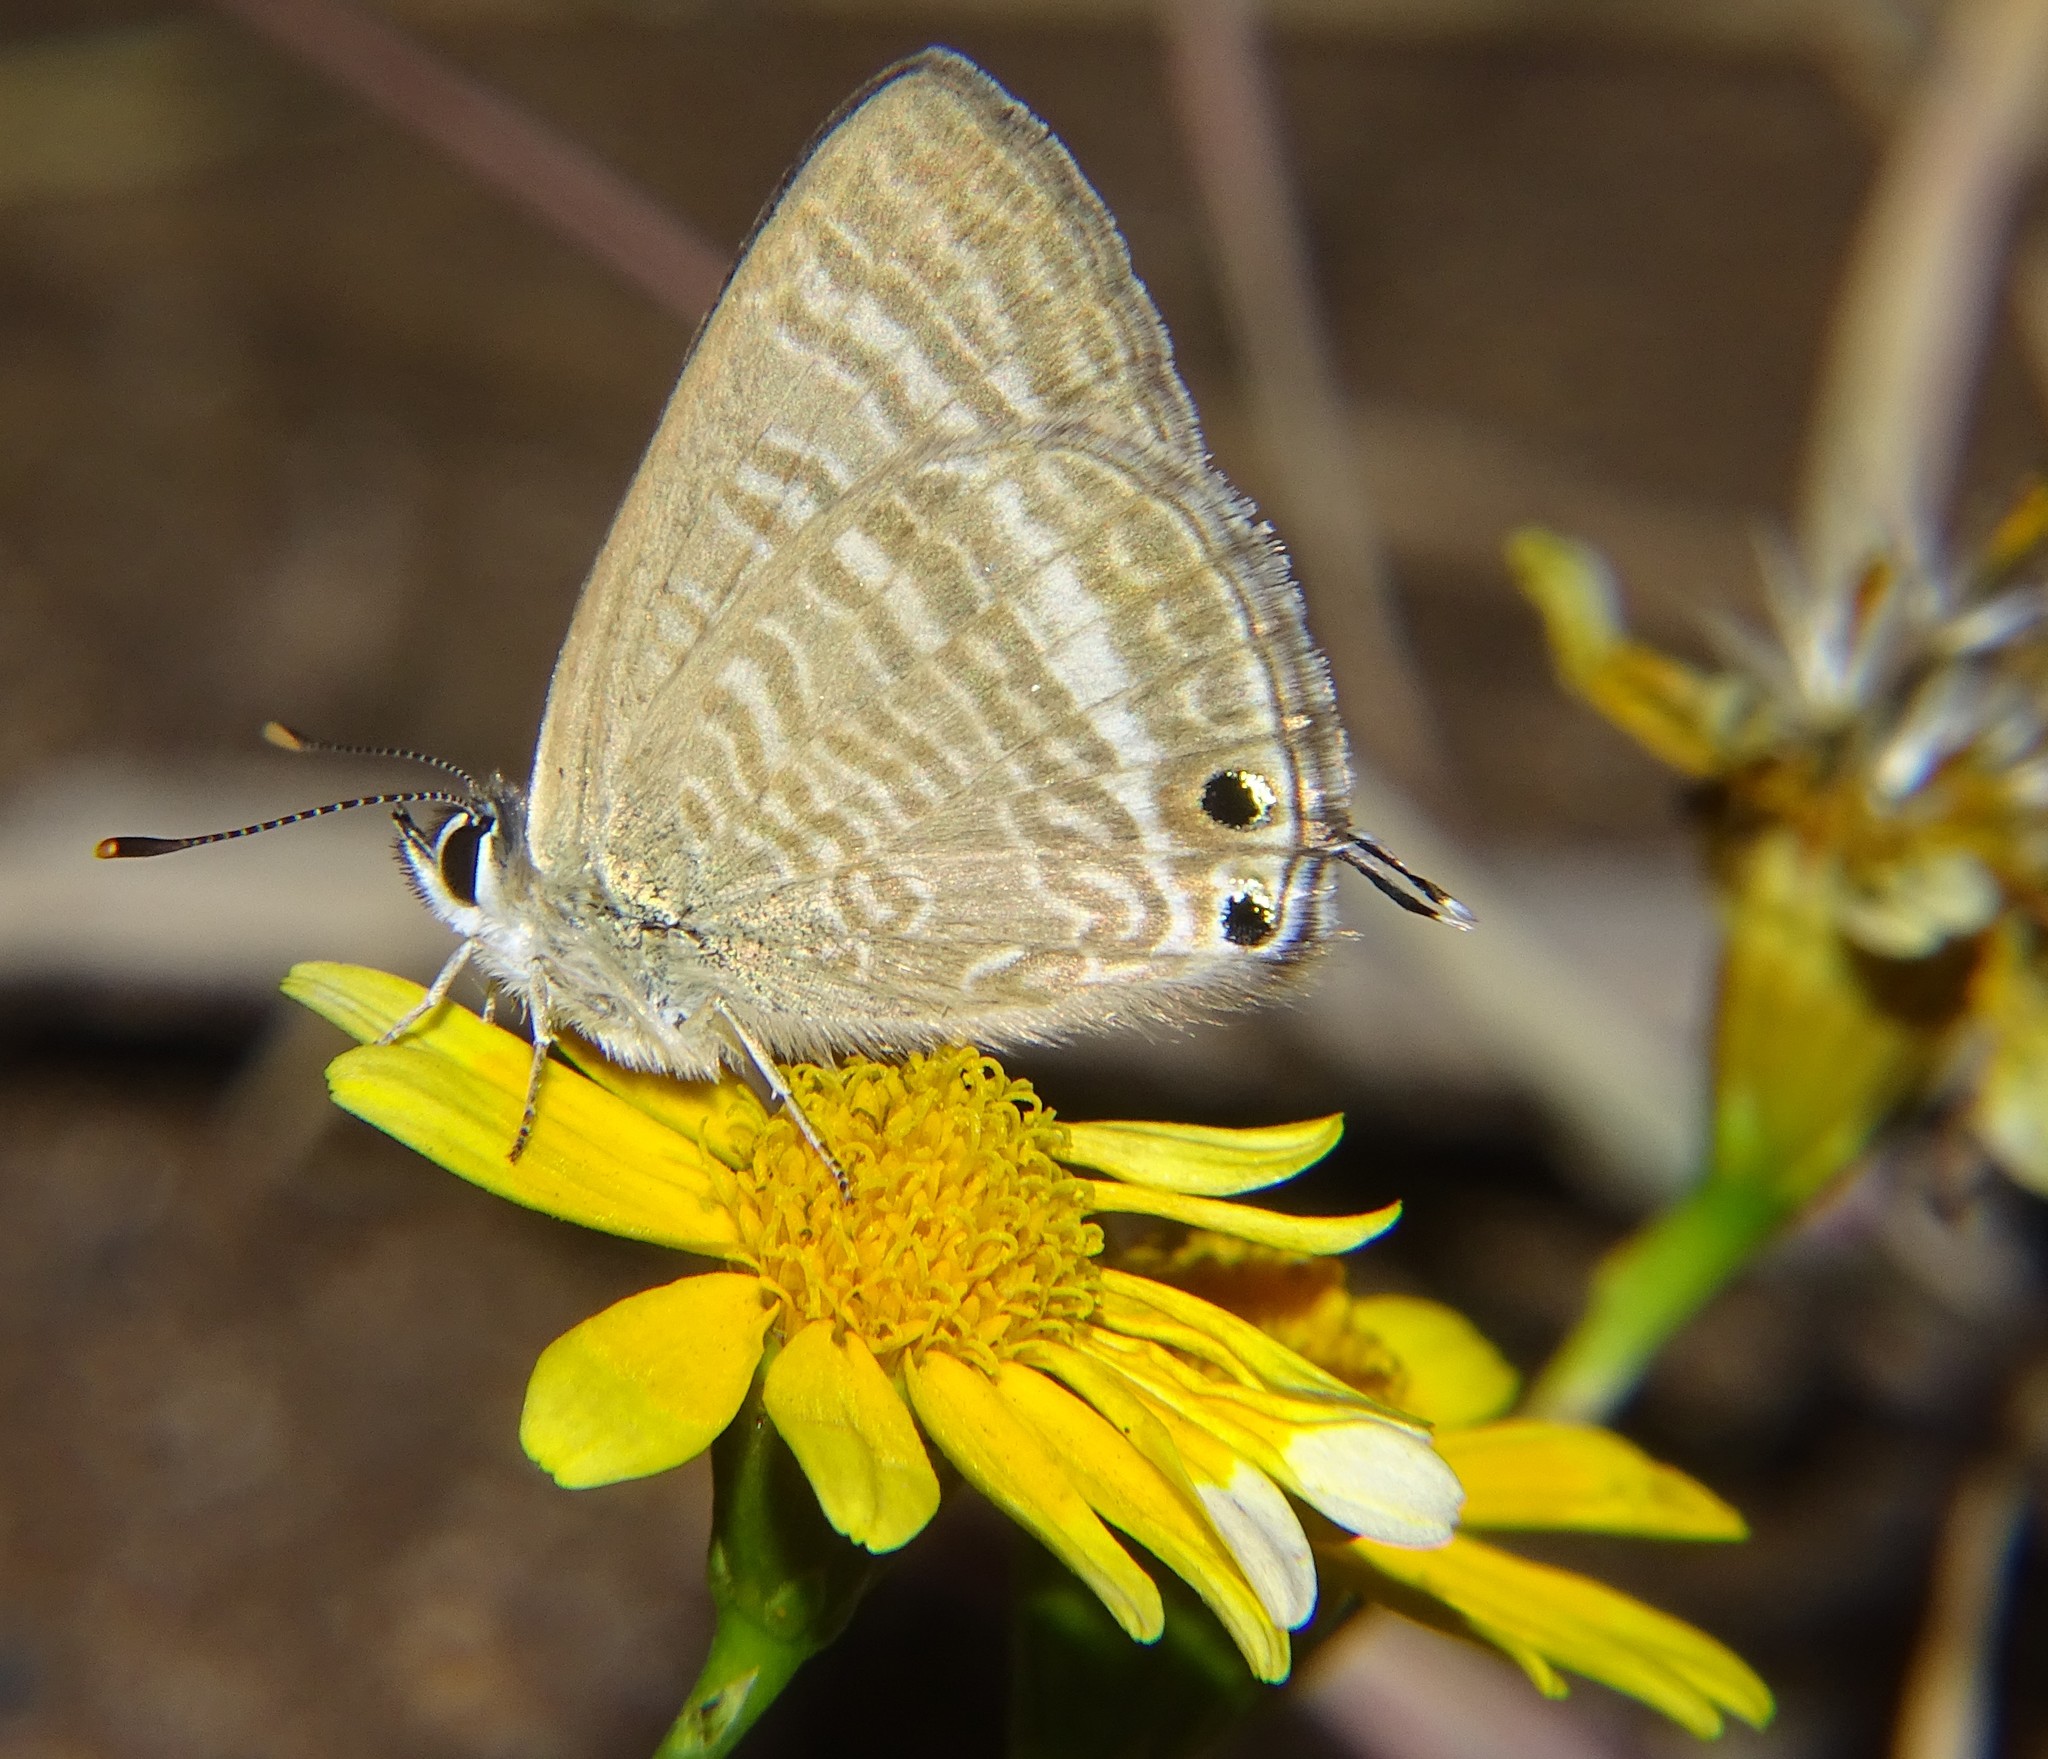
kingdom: Animalia
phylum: Arthropoda
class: Insecta
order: Lepidoptera
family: Lycaenidae
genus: Lampides
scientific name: Lampides boeticus
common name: Long-tailed blue
